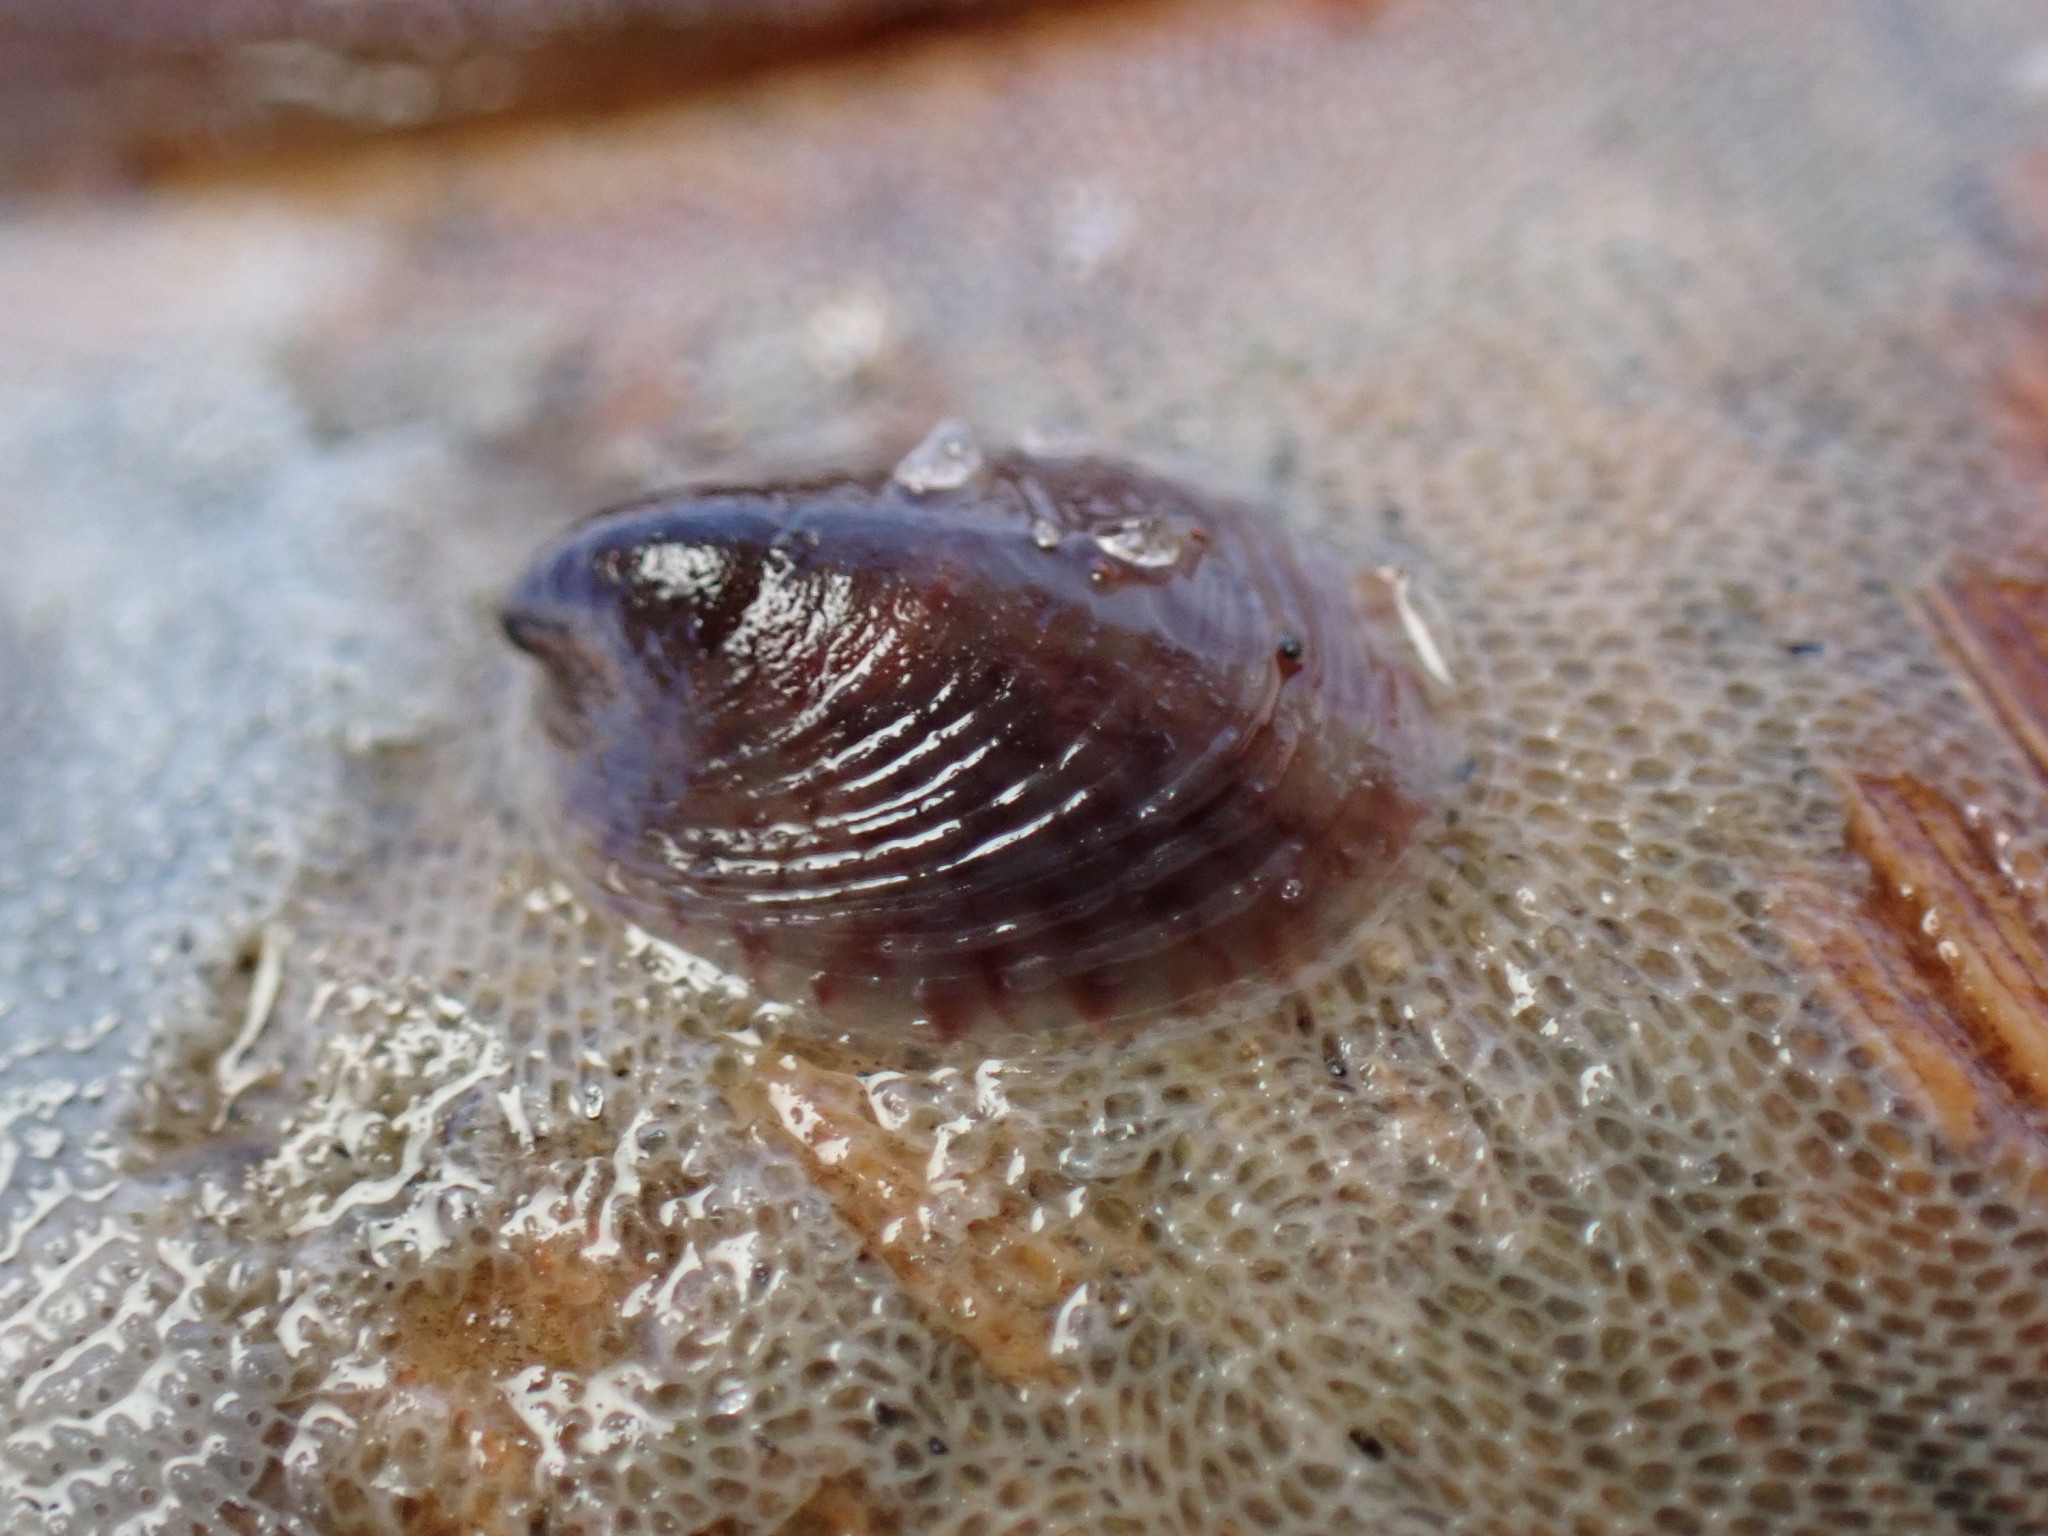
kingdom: Animalia
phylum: Mollusca
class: Gastropoda
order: Littorinimorpha
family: Calyptraeidae
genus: Crepidula
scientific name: Crepidula convexa
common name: Convex slippersnail
